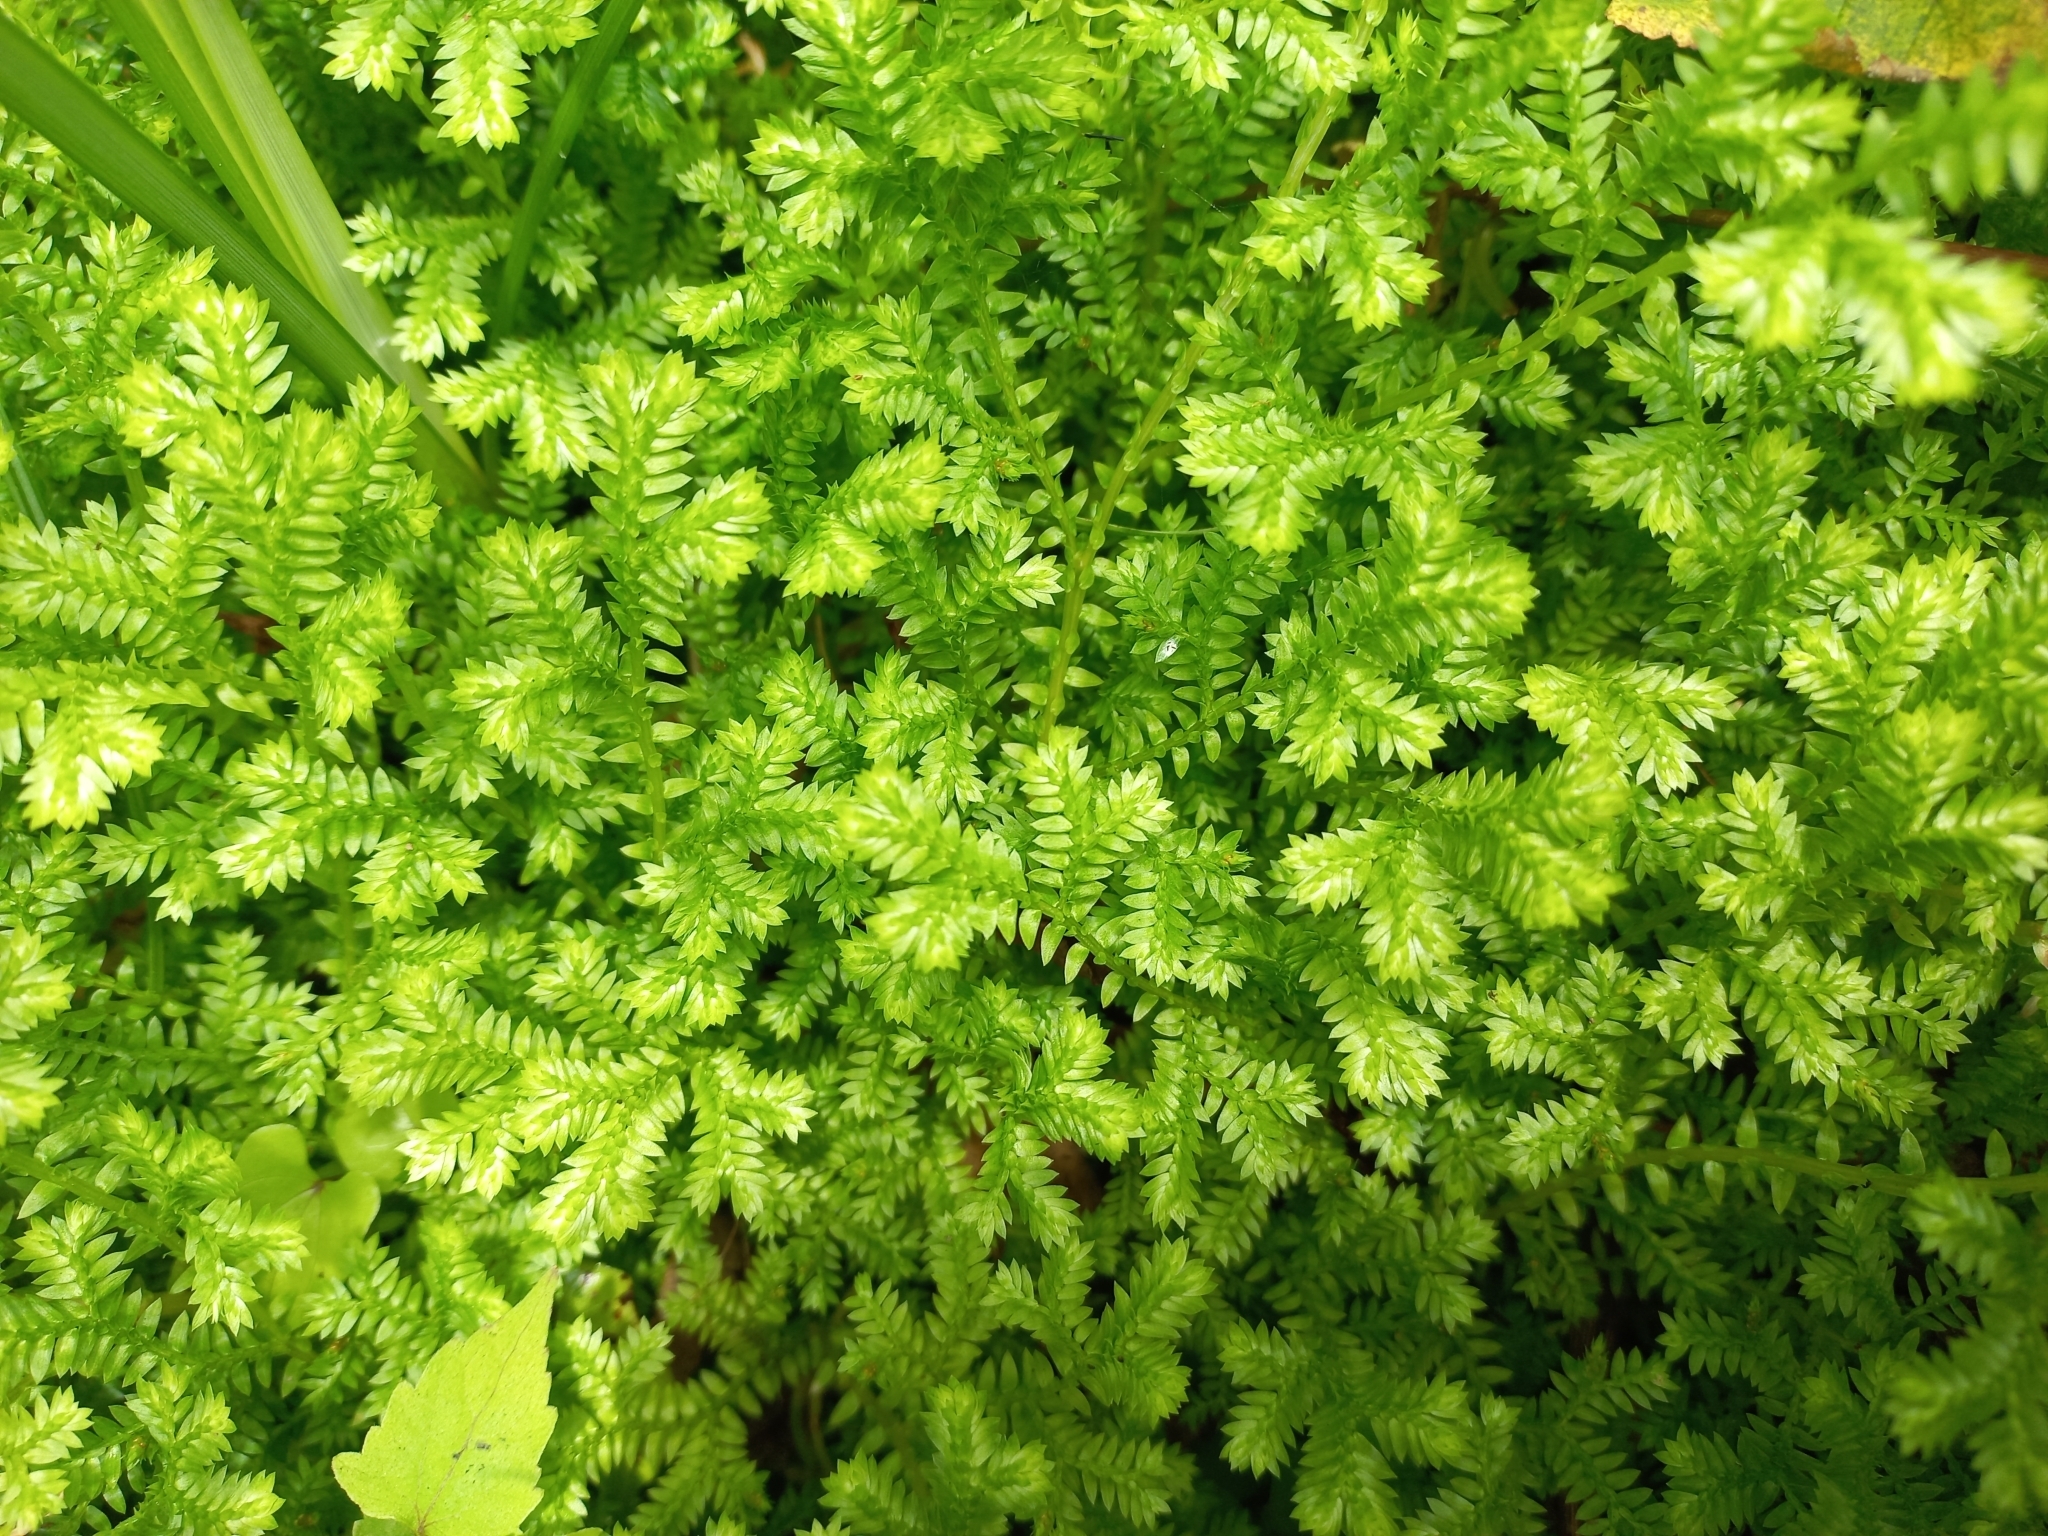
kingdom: Plantae
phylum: Tracheophyta
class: Lycopodiopsida
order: Selaginellales
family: Selaginellaceae
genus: Selaginella
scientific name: Selaginella kraussiana
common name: Krauss' spikemoss
